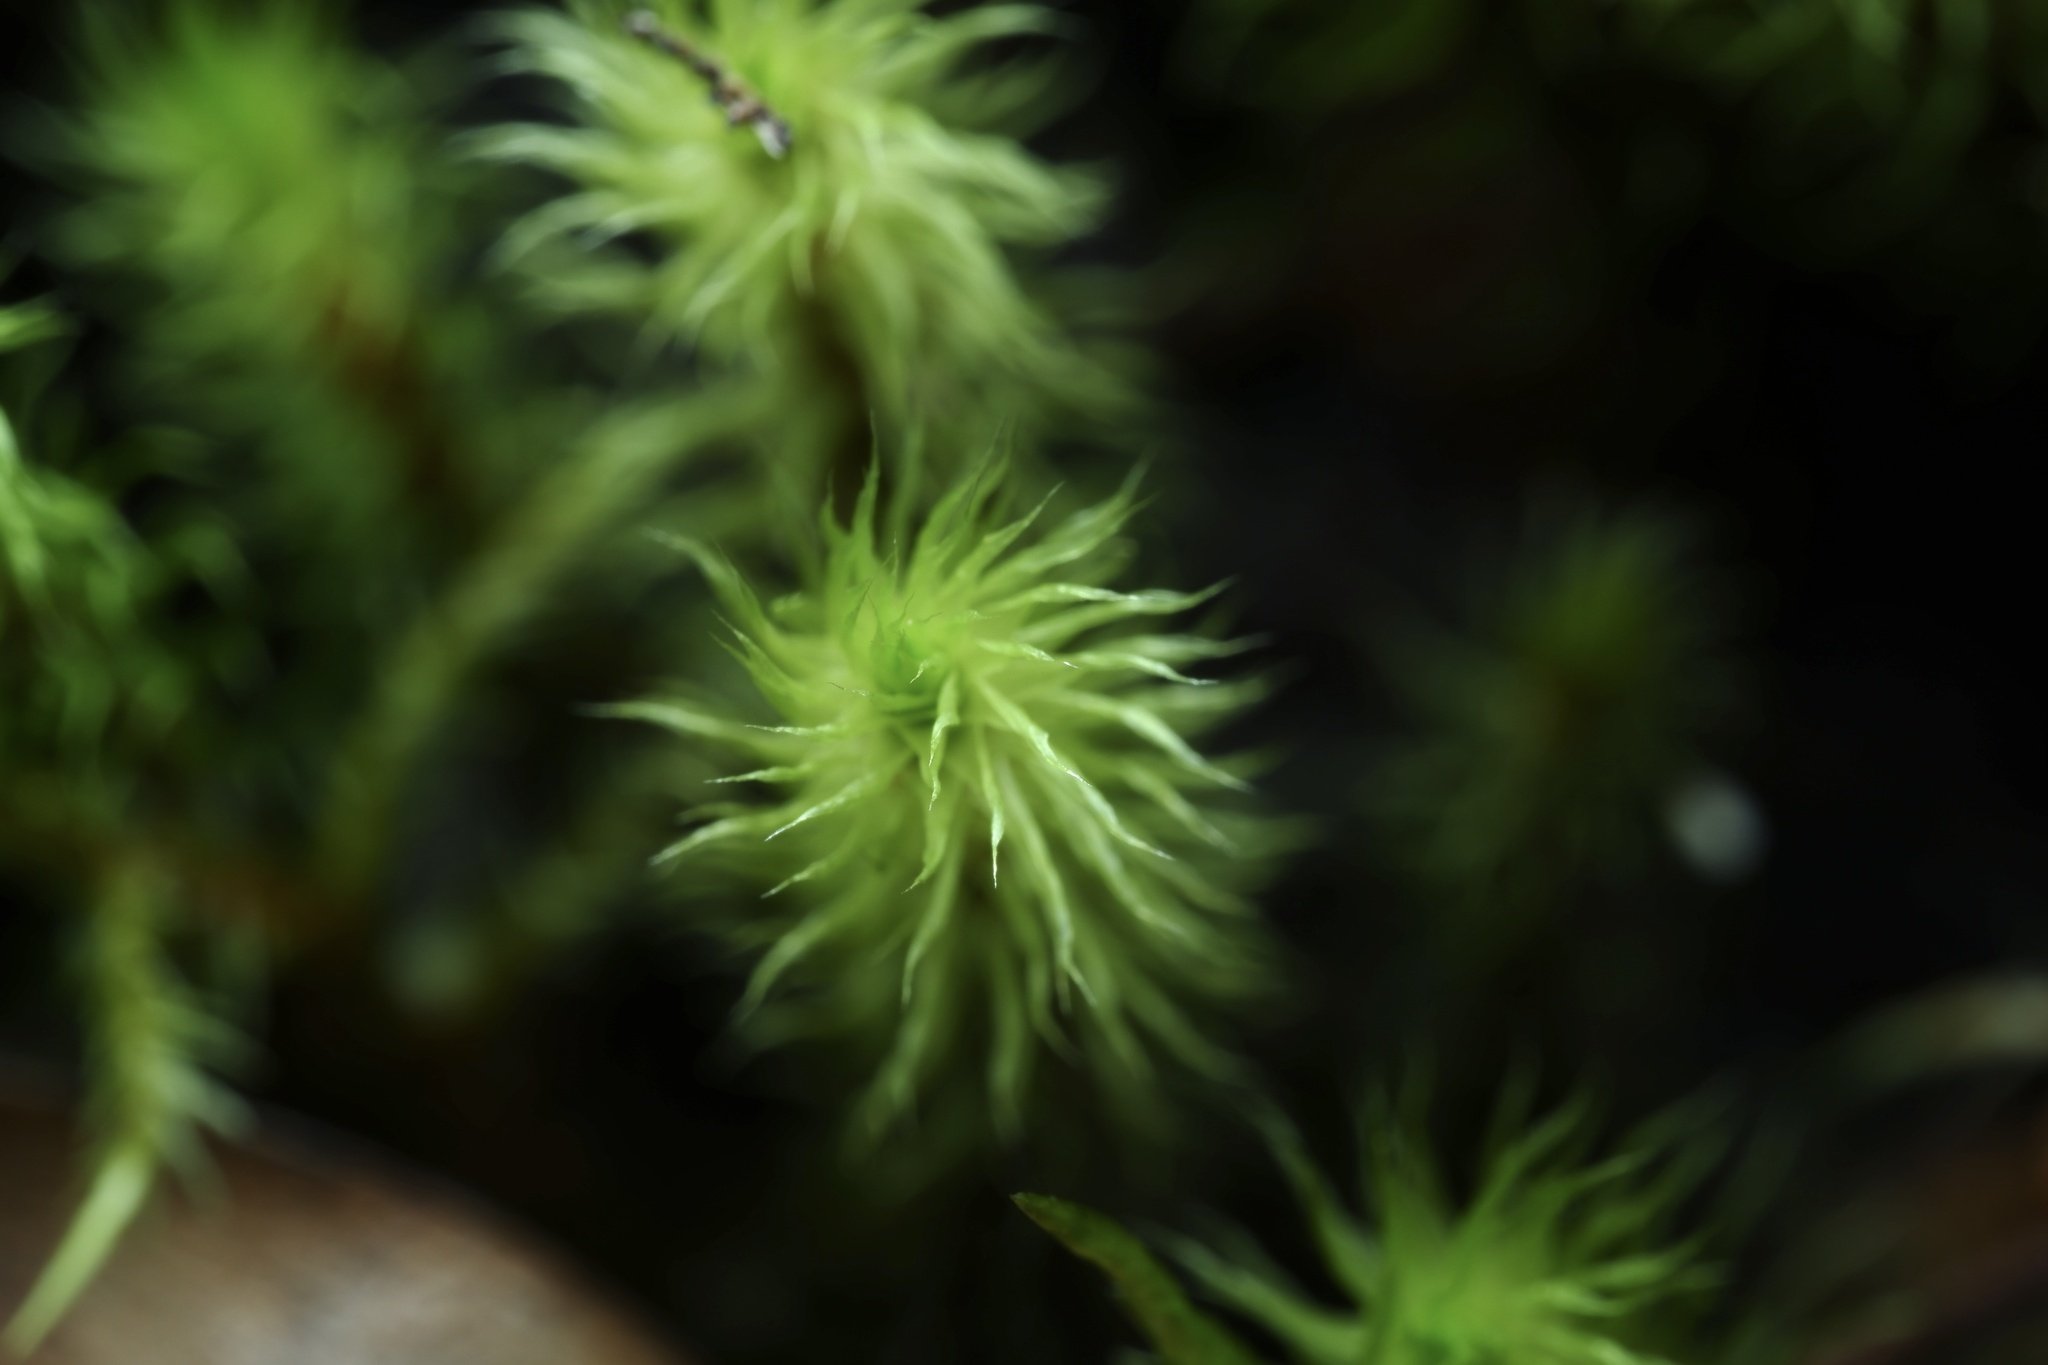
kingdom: Plantae
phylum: Bryophyta
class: Bryopsida
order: Bartramiales
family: Bartramiaceae
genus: Breutelia
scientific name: Breutelia pendula
